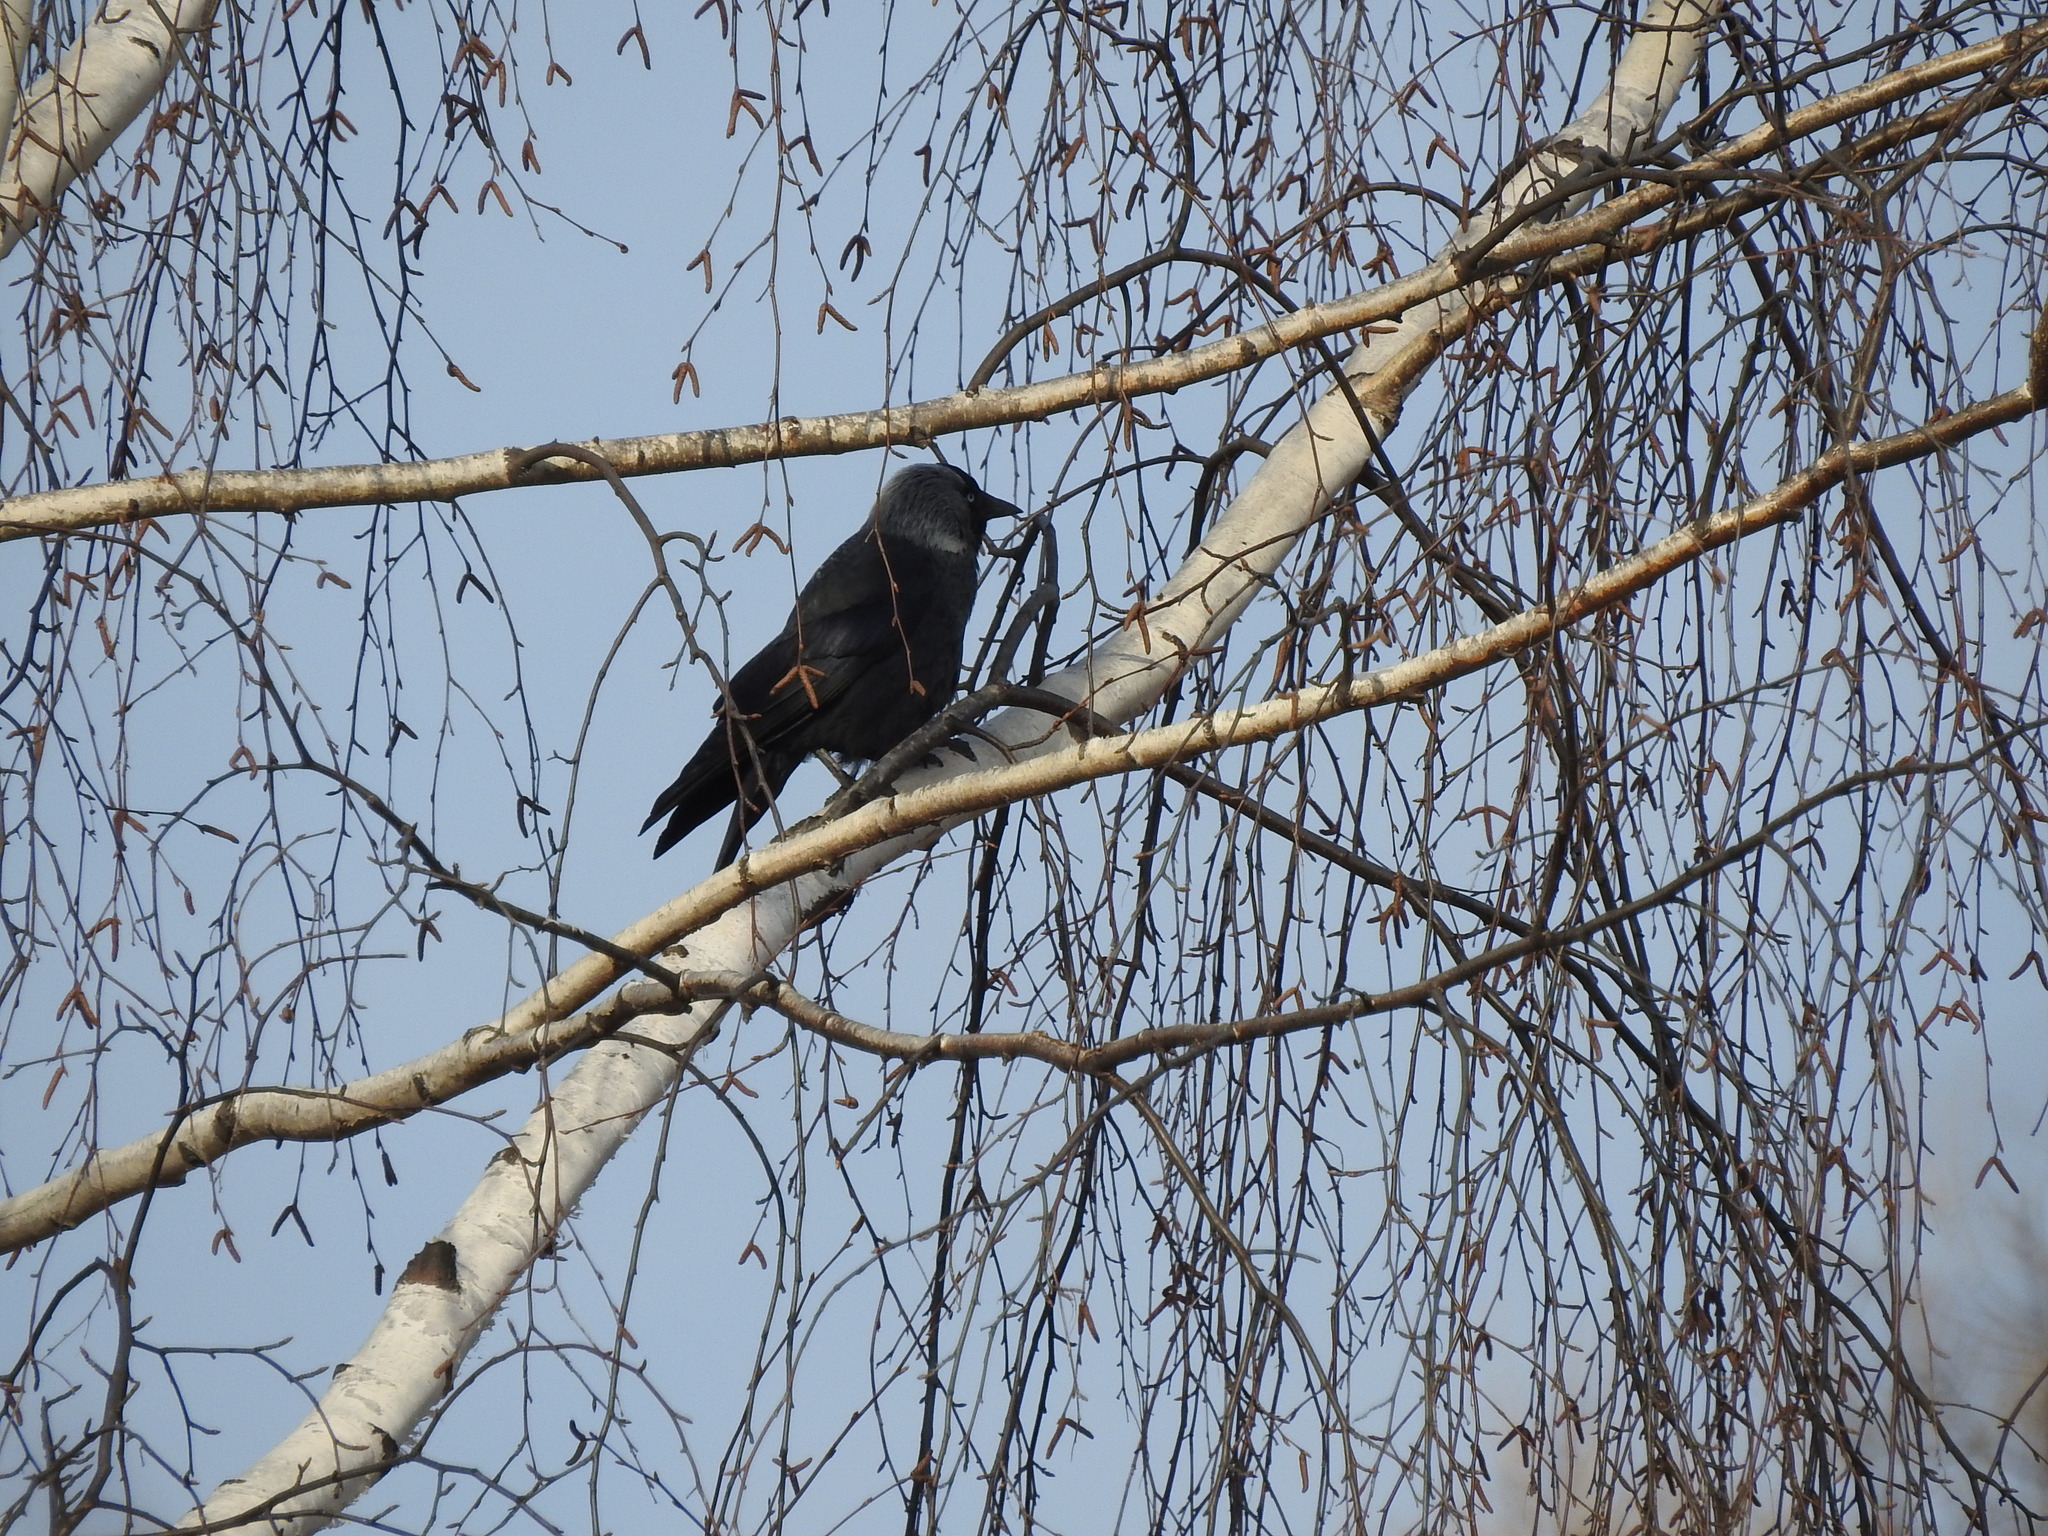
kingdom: Animalia
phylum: Chordata
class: Aves
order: Passeriformes
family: Corvidae
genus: Coloeus
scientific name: Coloeus monedula
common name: Western jackdaw
